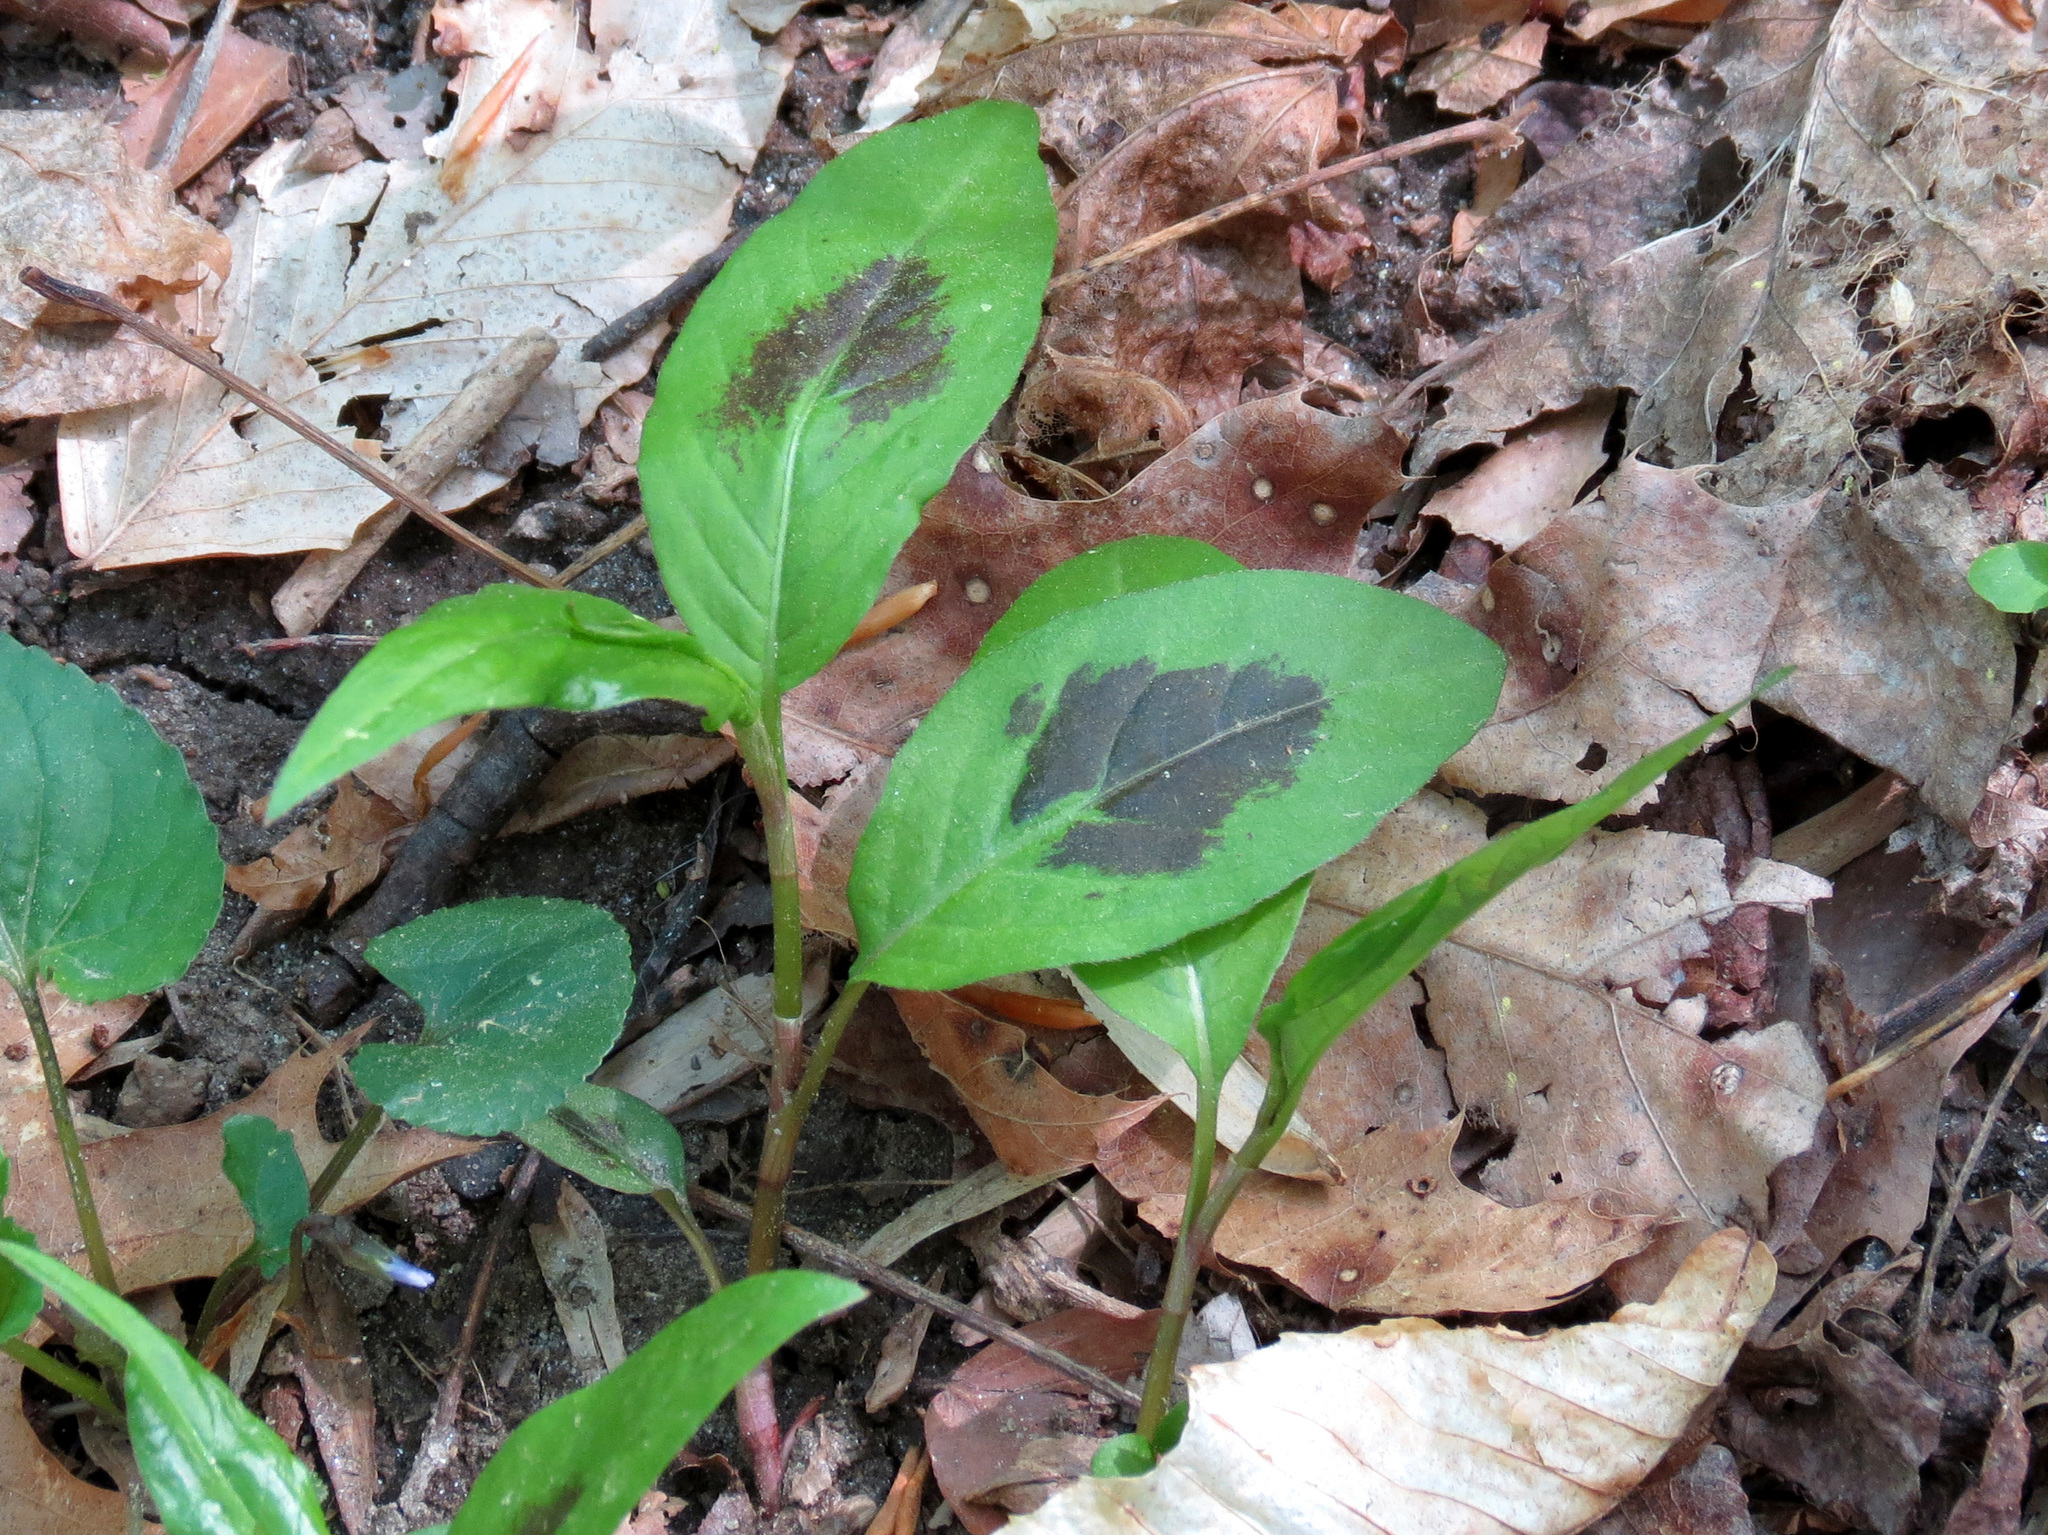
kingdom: Plantae
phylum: Tracheophyta
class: Magnoliopsida
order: Caryophyllales
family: Polygonaceae
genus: Persicaria
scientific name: Persicaria virginiana
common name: Jumpseed
